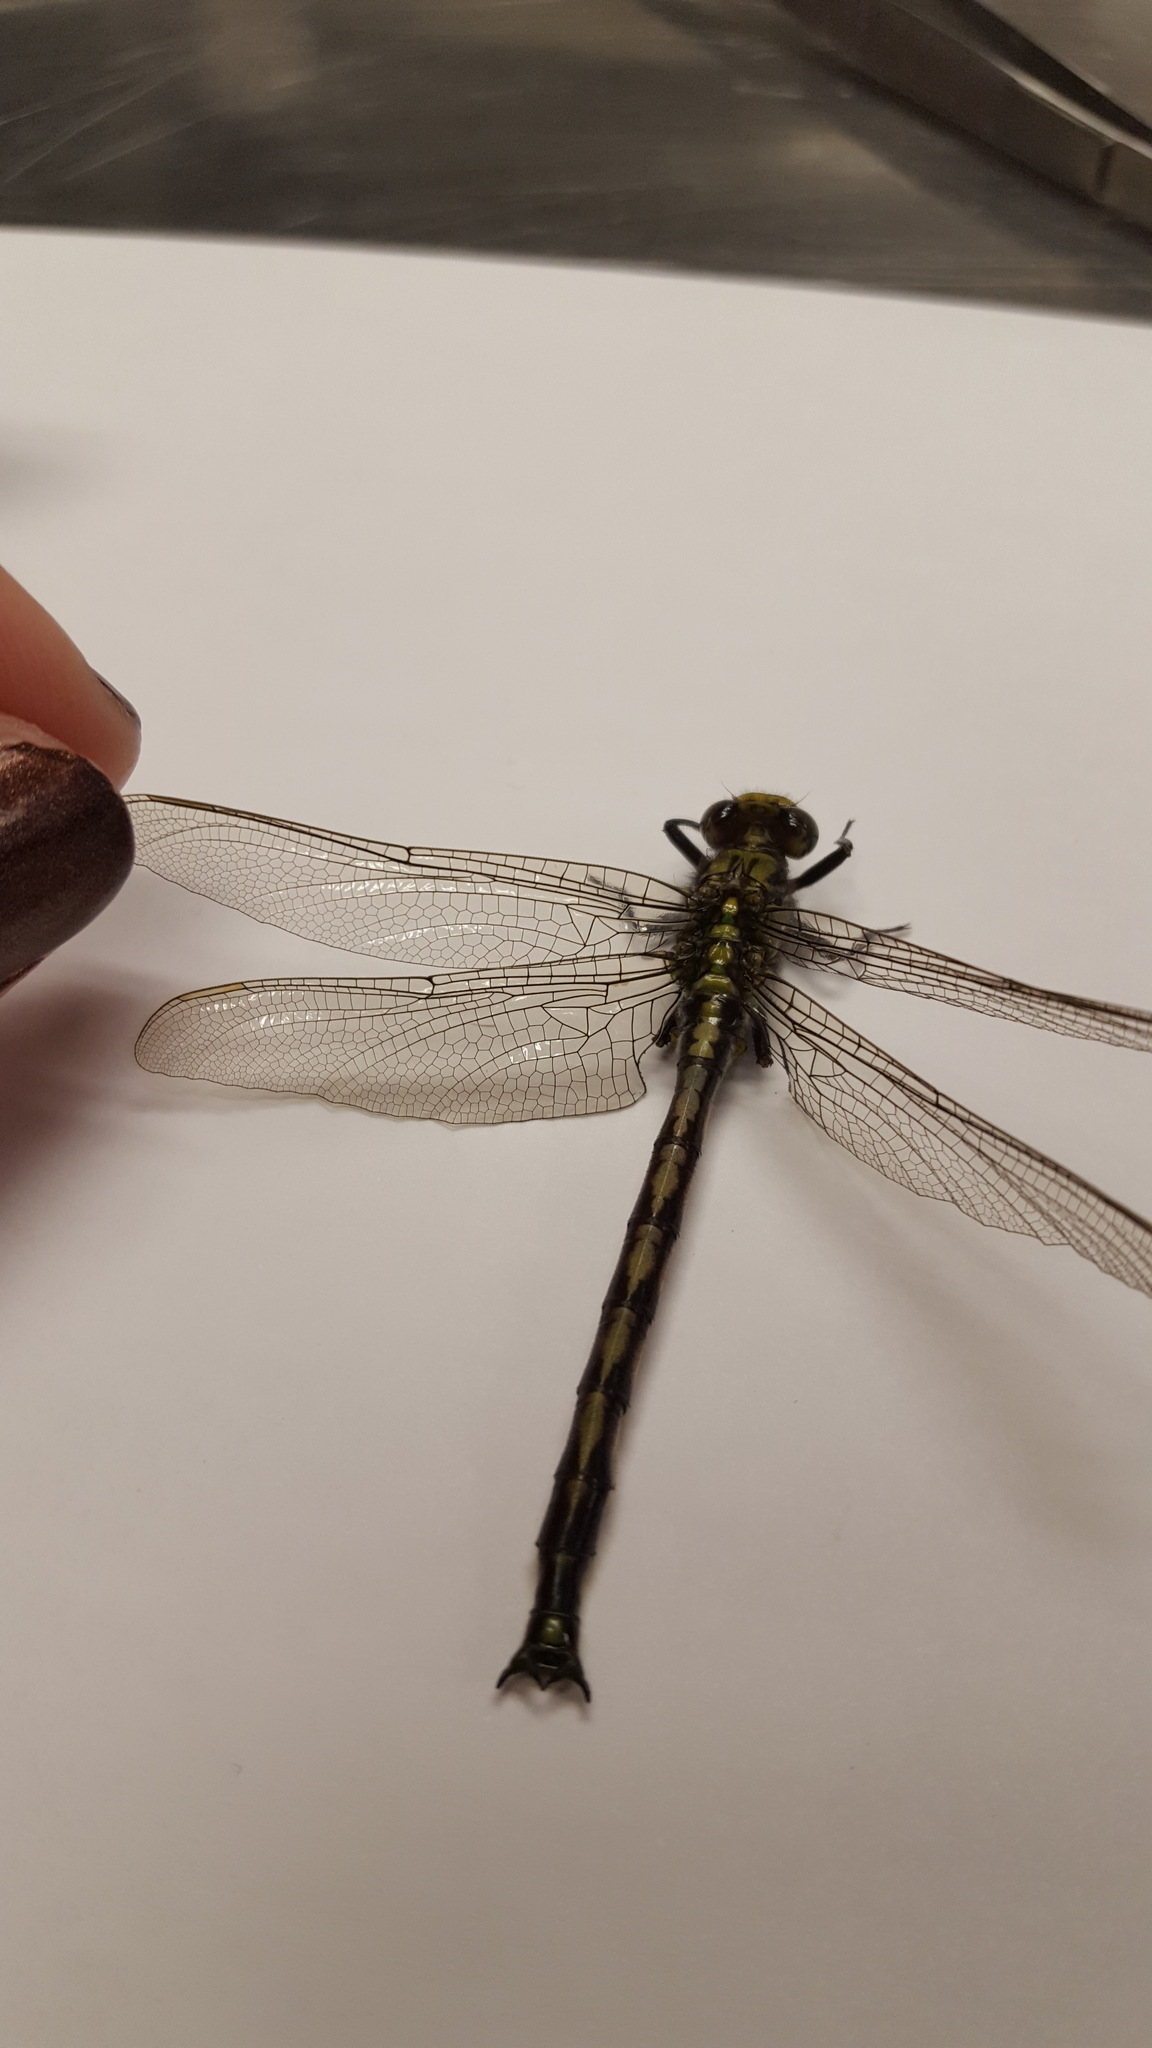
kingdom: Animalia
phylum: Arthropoda
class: Insecta
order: Odonata
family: Gomphidae
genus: Arigomphus
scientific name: Arigomphus cornutus
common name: Horned clubtail
